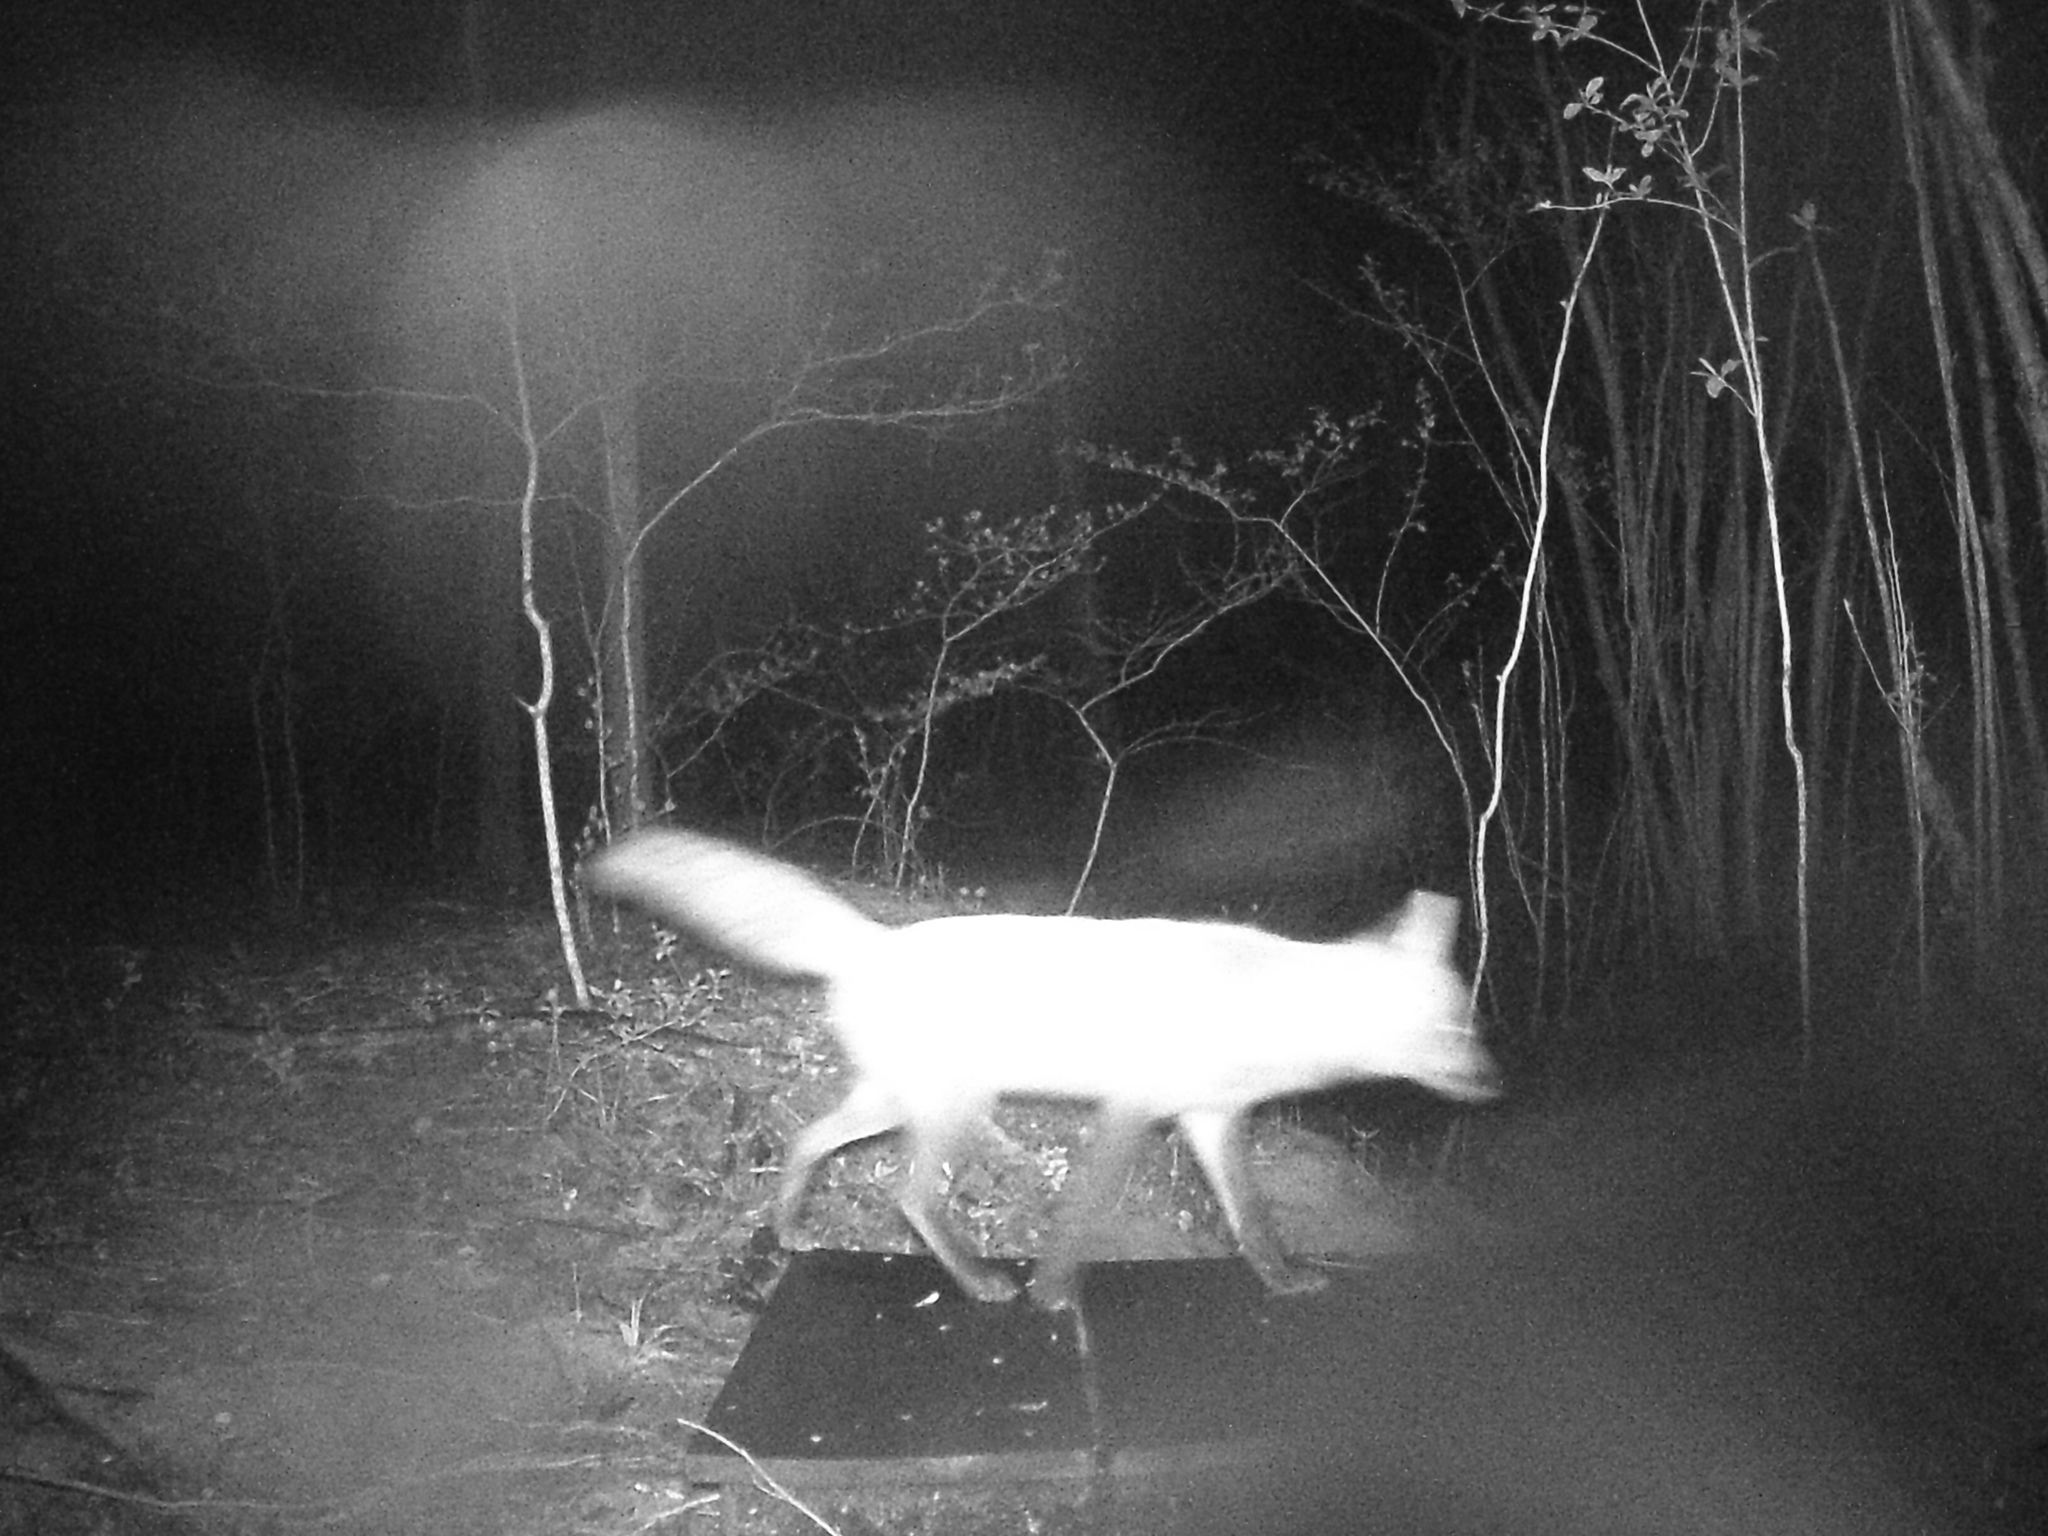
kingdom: Animalia
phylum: Chordata
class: Mammalia
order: Carnivora
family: Canidae
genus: Vulpes
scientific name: Vulpes vulpes
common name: Red fox
